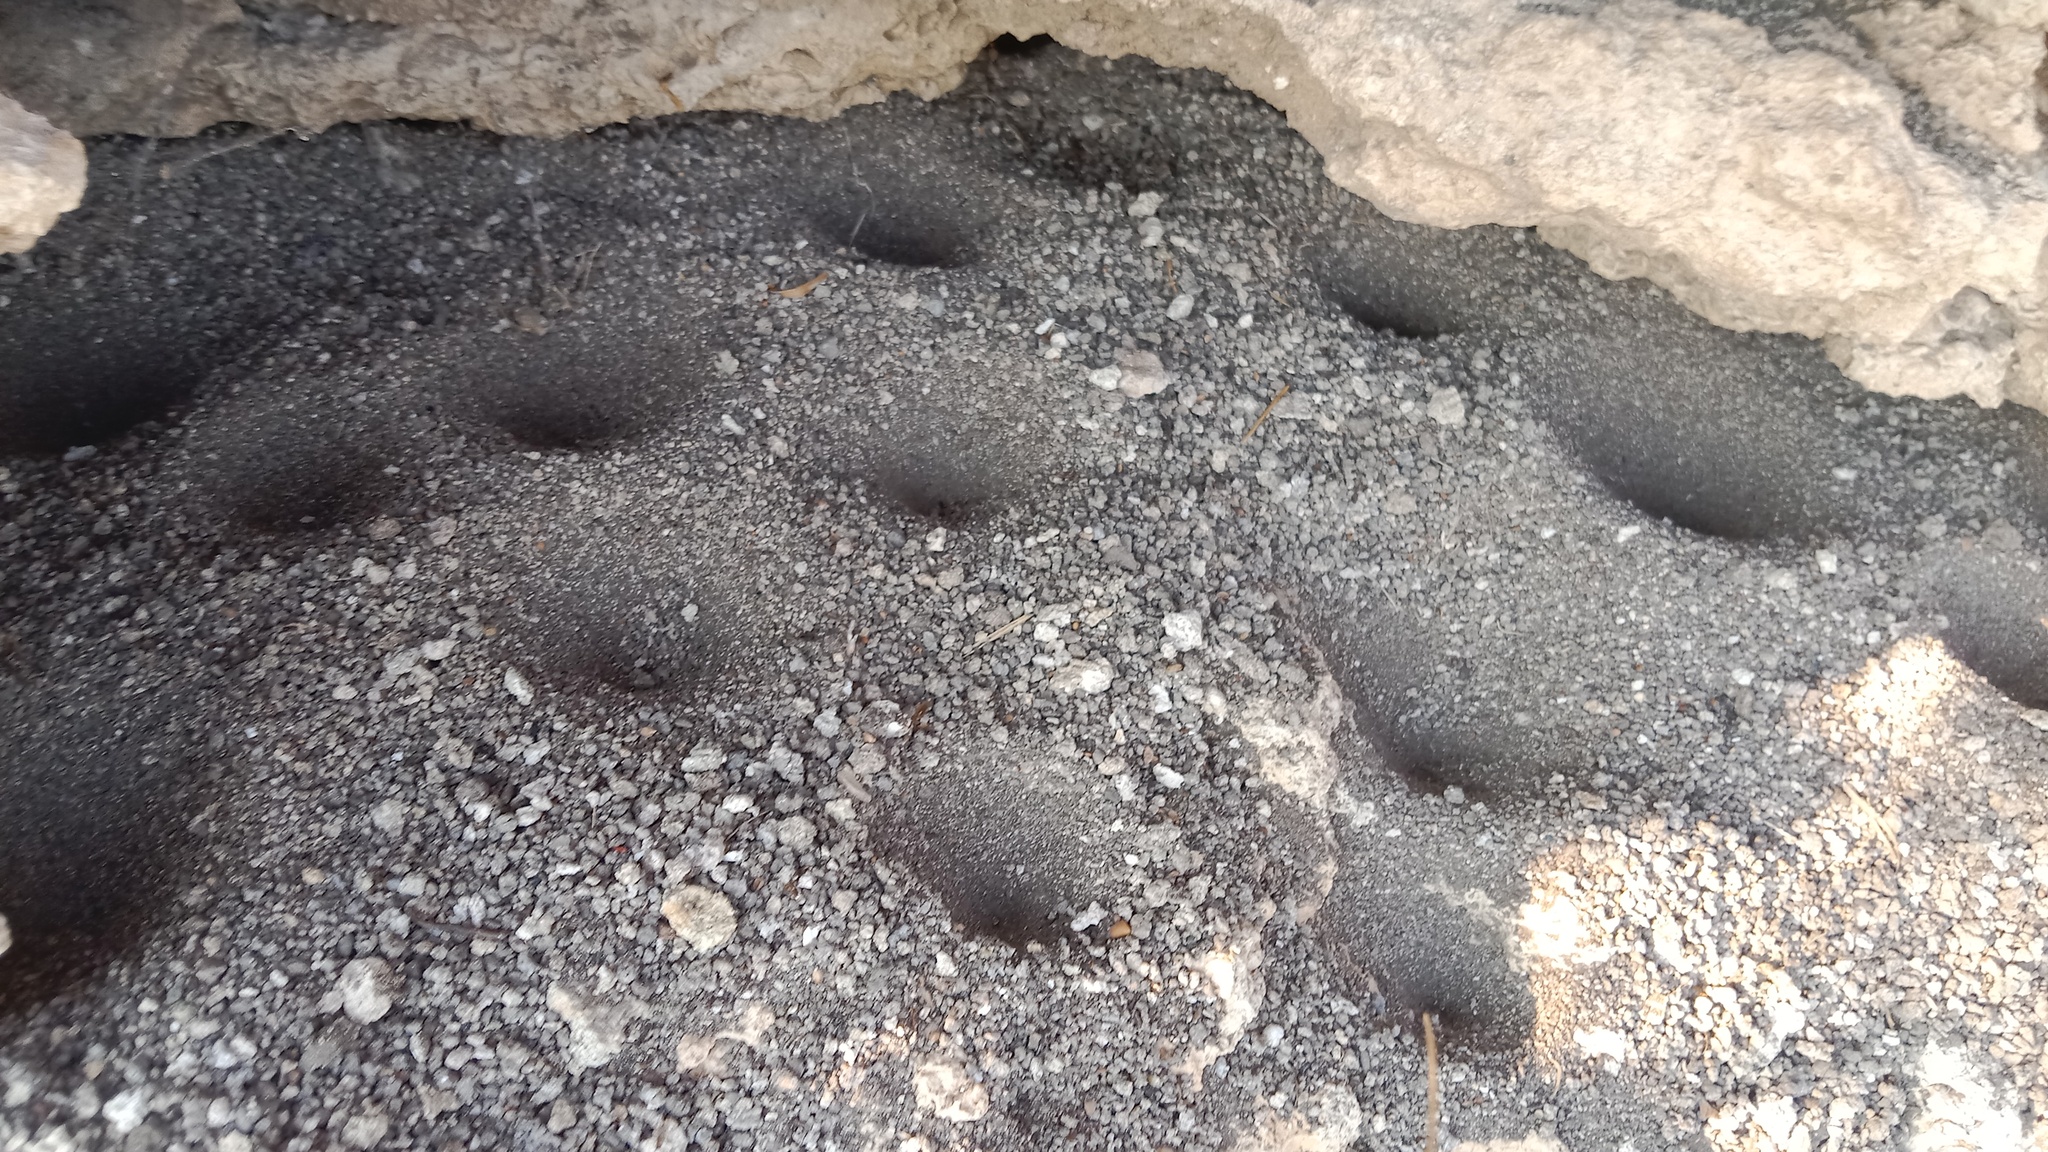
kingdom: Animalia
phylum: Arthropoda
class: Insecta
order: Neuroptera
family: Myrmeleontidae
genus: Euroleon
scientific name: Euroleon nostras
